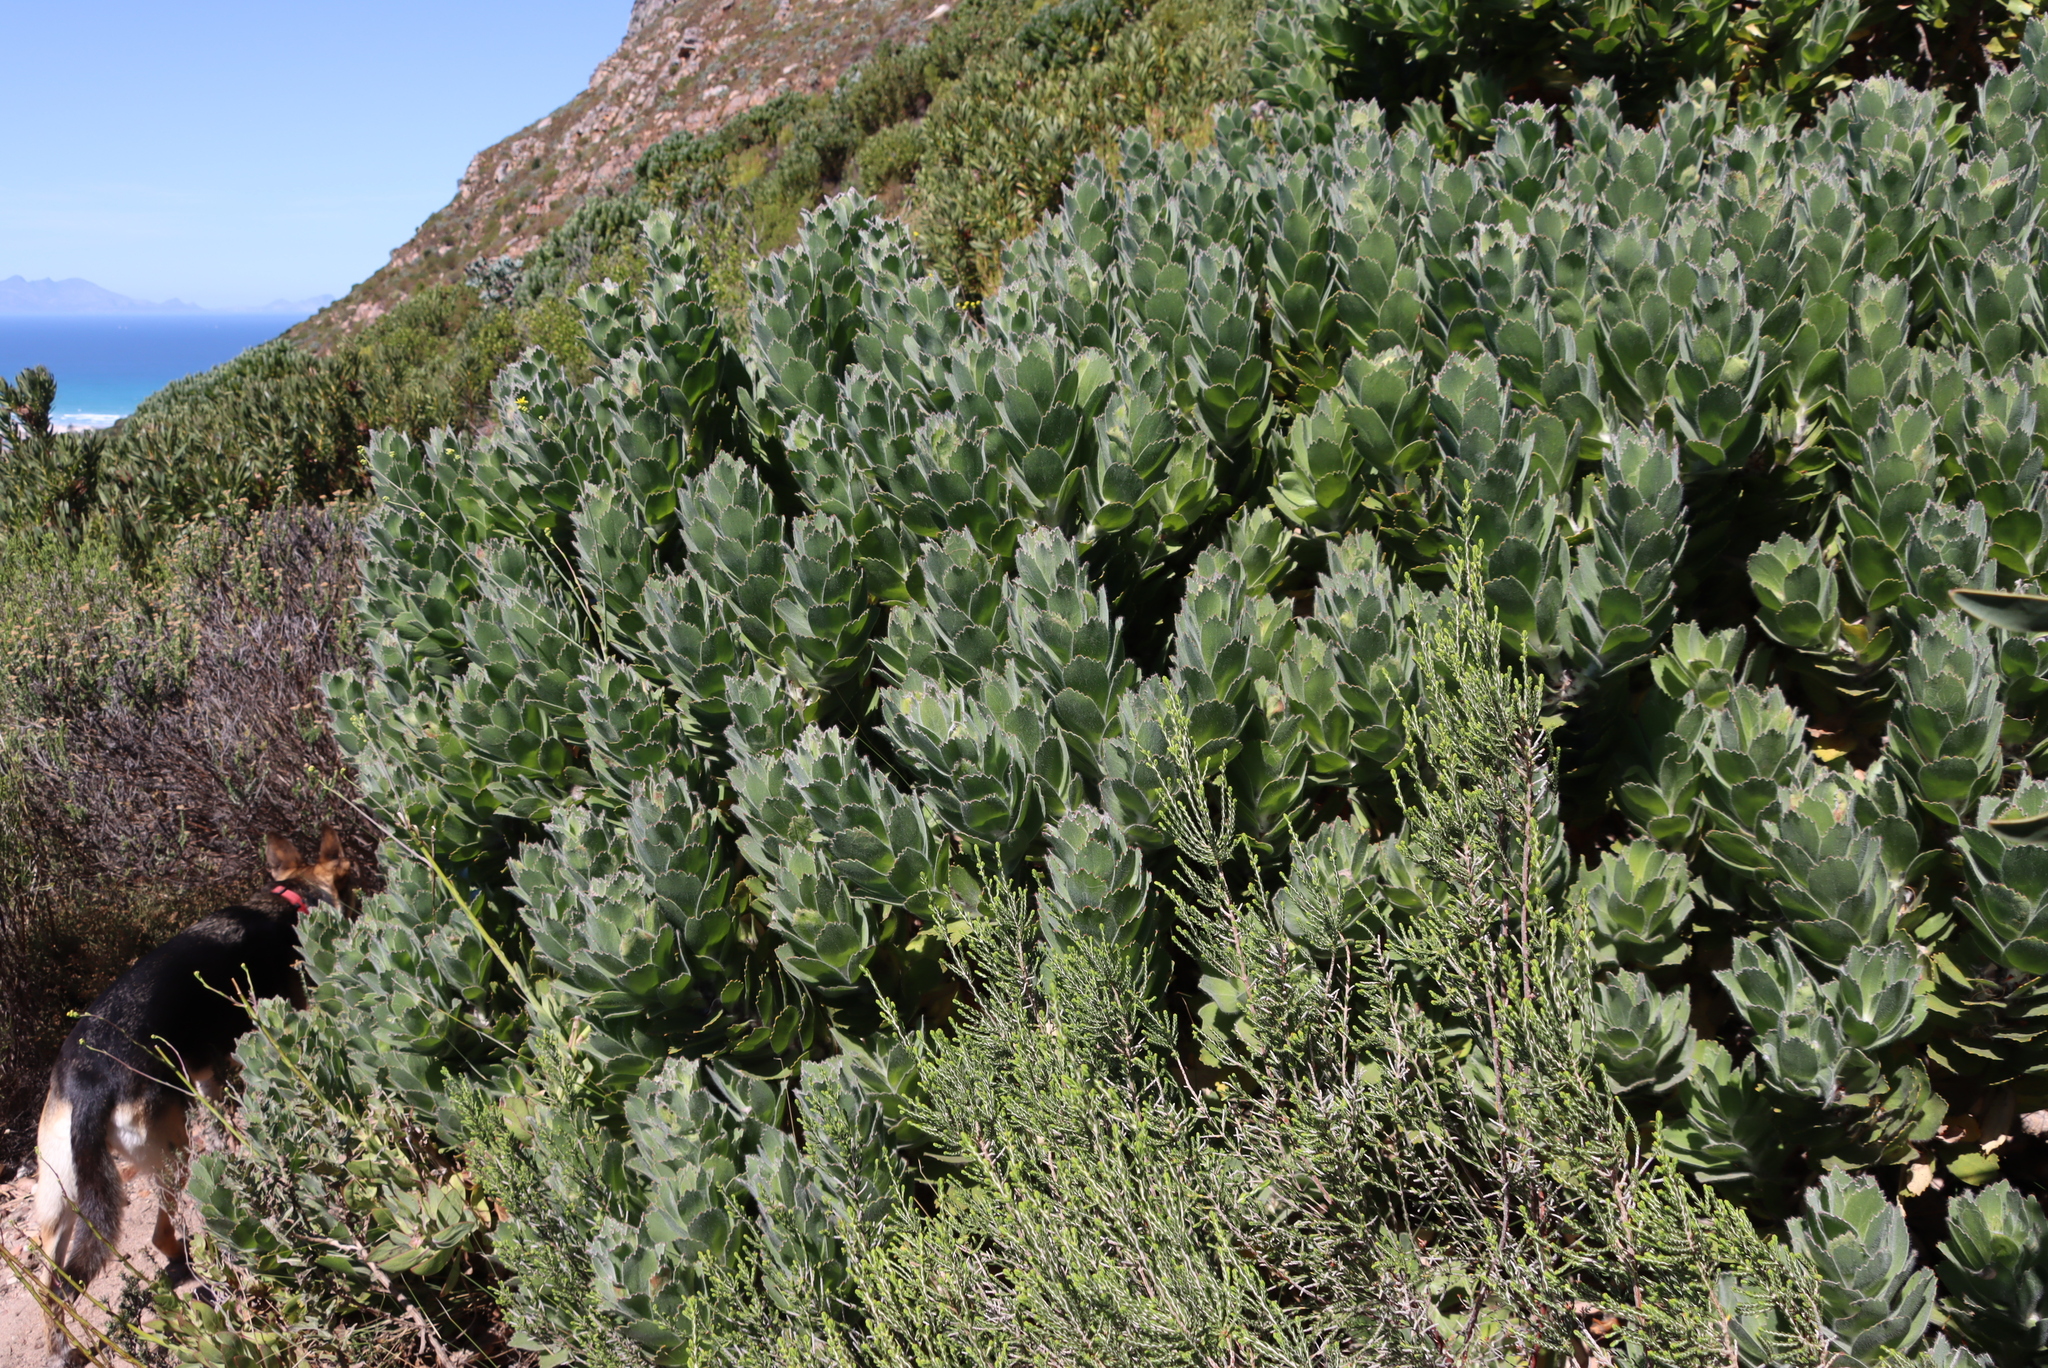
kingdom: Plantae
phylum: Tracheophyta
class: Magnoliopsida
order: Proteales
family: Proteaceae
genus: Leucospermum
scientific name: Leucospermum conocarpodendron
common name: Tree pincushion
